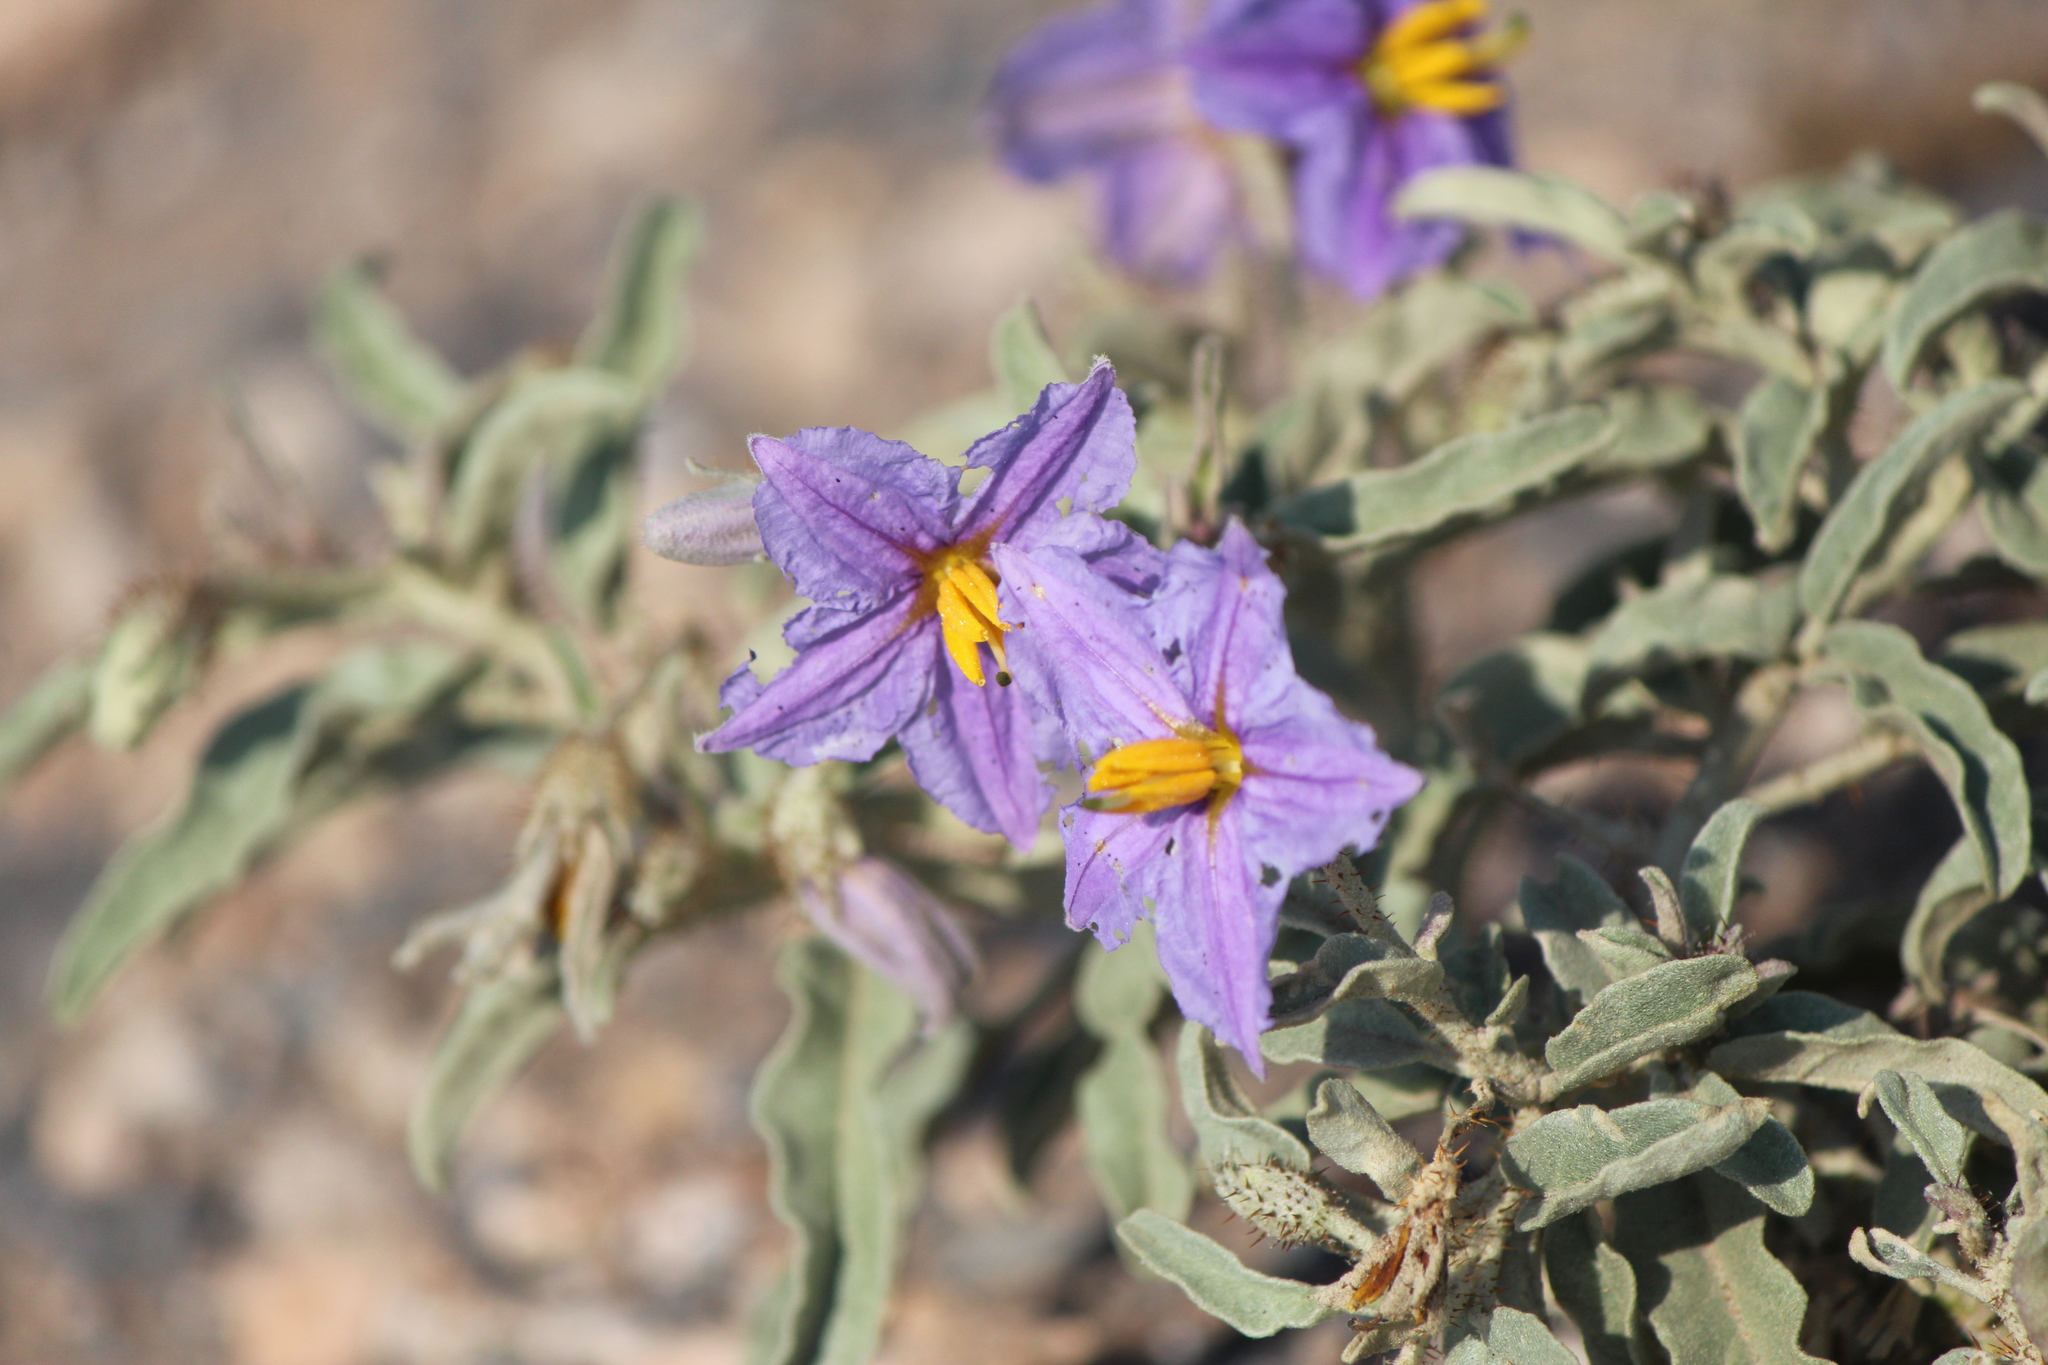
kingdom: Plantae
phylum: Tracheophyta
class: Magnoliopsida
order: Solanales
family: Solanaceae
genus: Solanum
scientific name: Solanum elaeagnifolium
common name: Silverleaf nightshade
